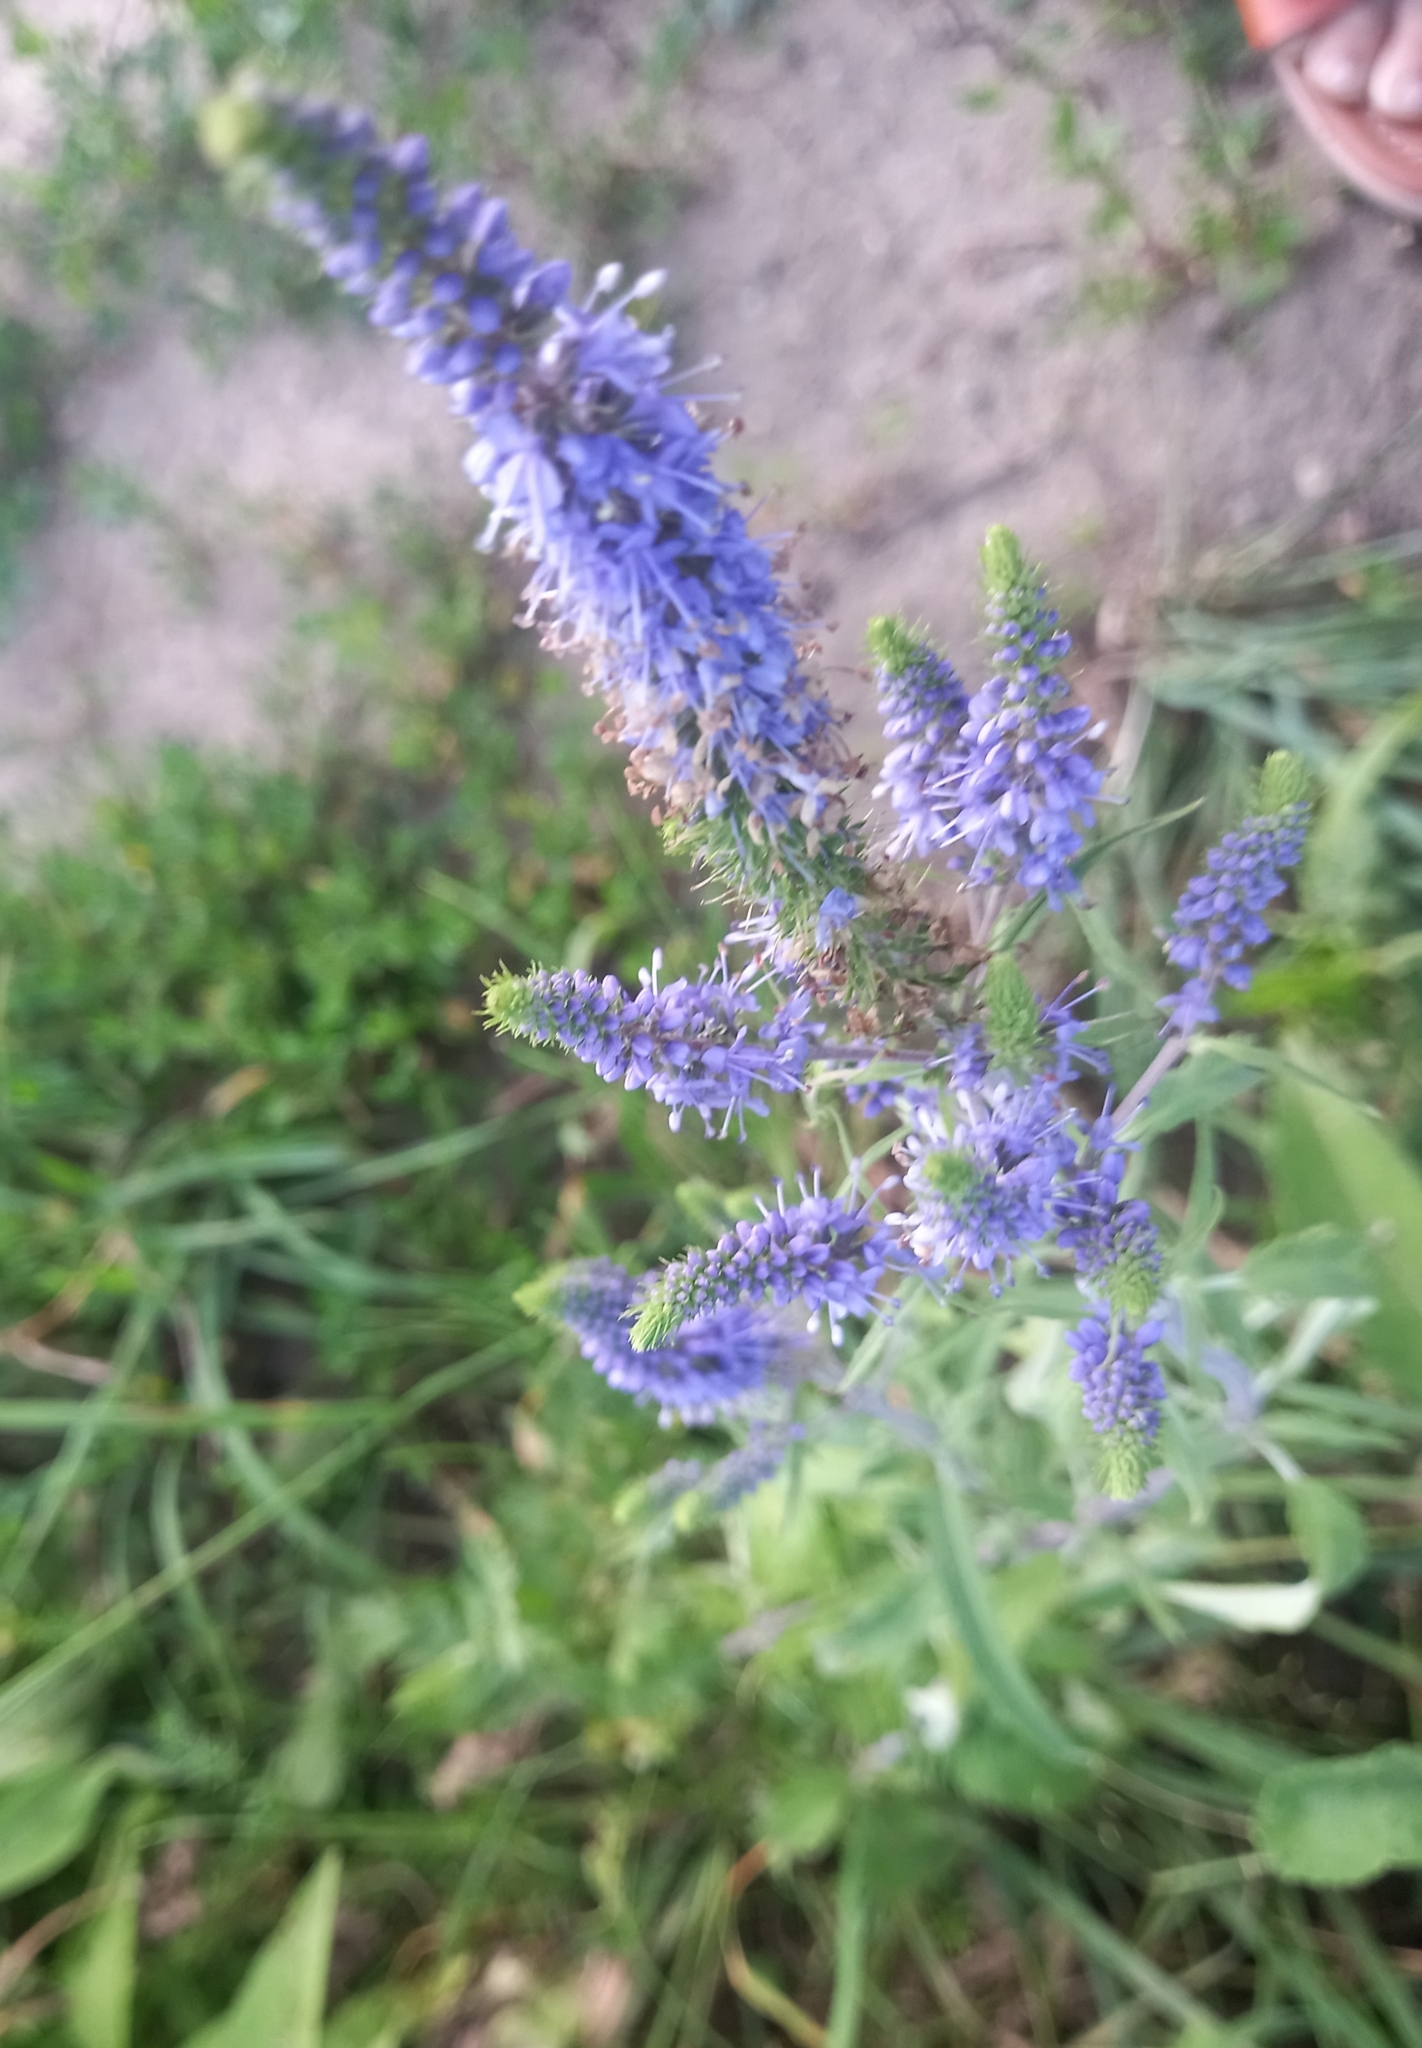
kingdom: Plantae
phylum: Tracheophyta
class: Magnoliopsida
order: Lamiales
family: Plantaginaceae
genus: Veronica
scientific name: Veronica longifolia
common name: Garden speedwell
